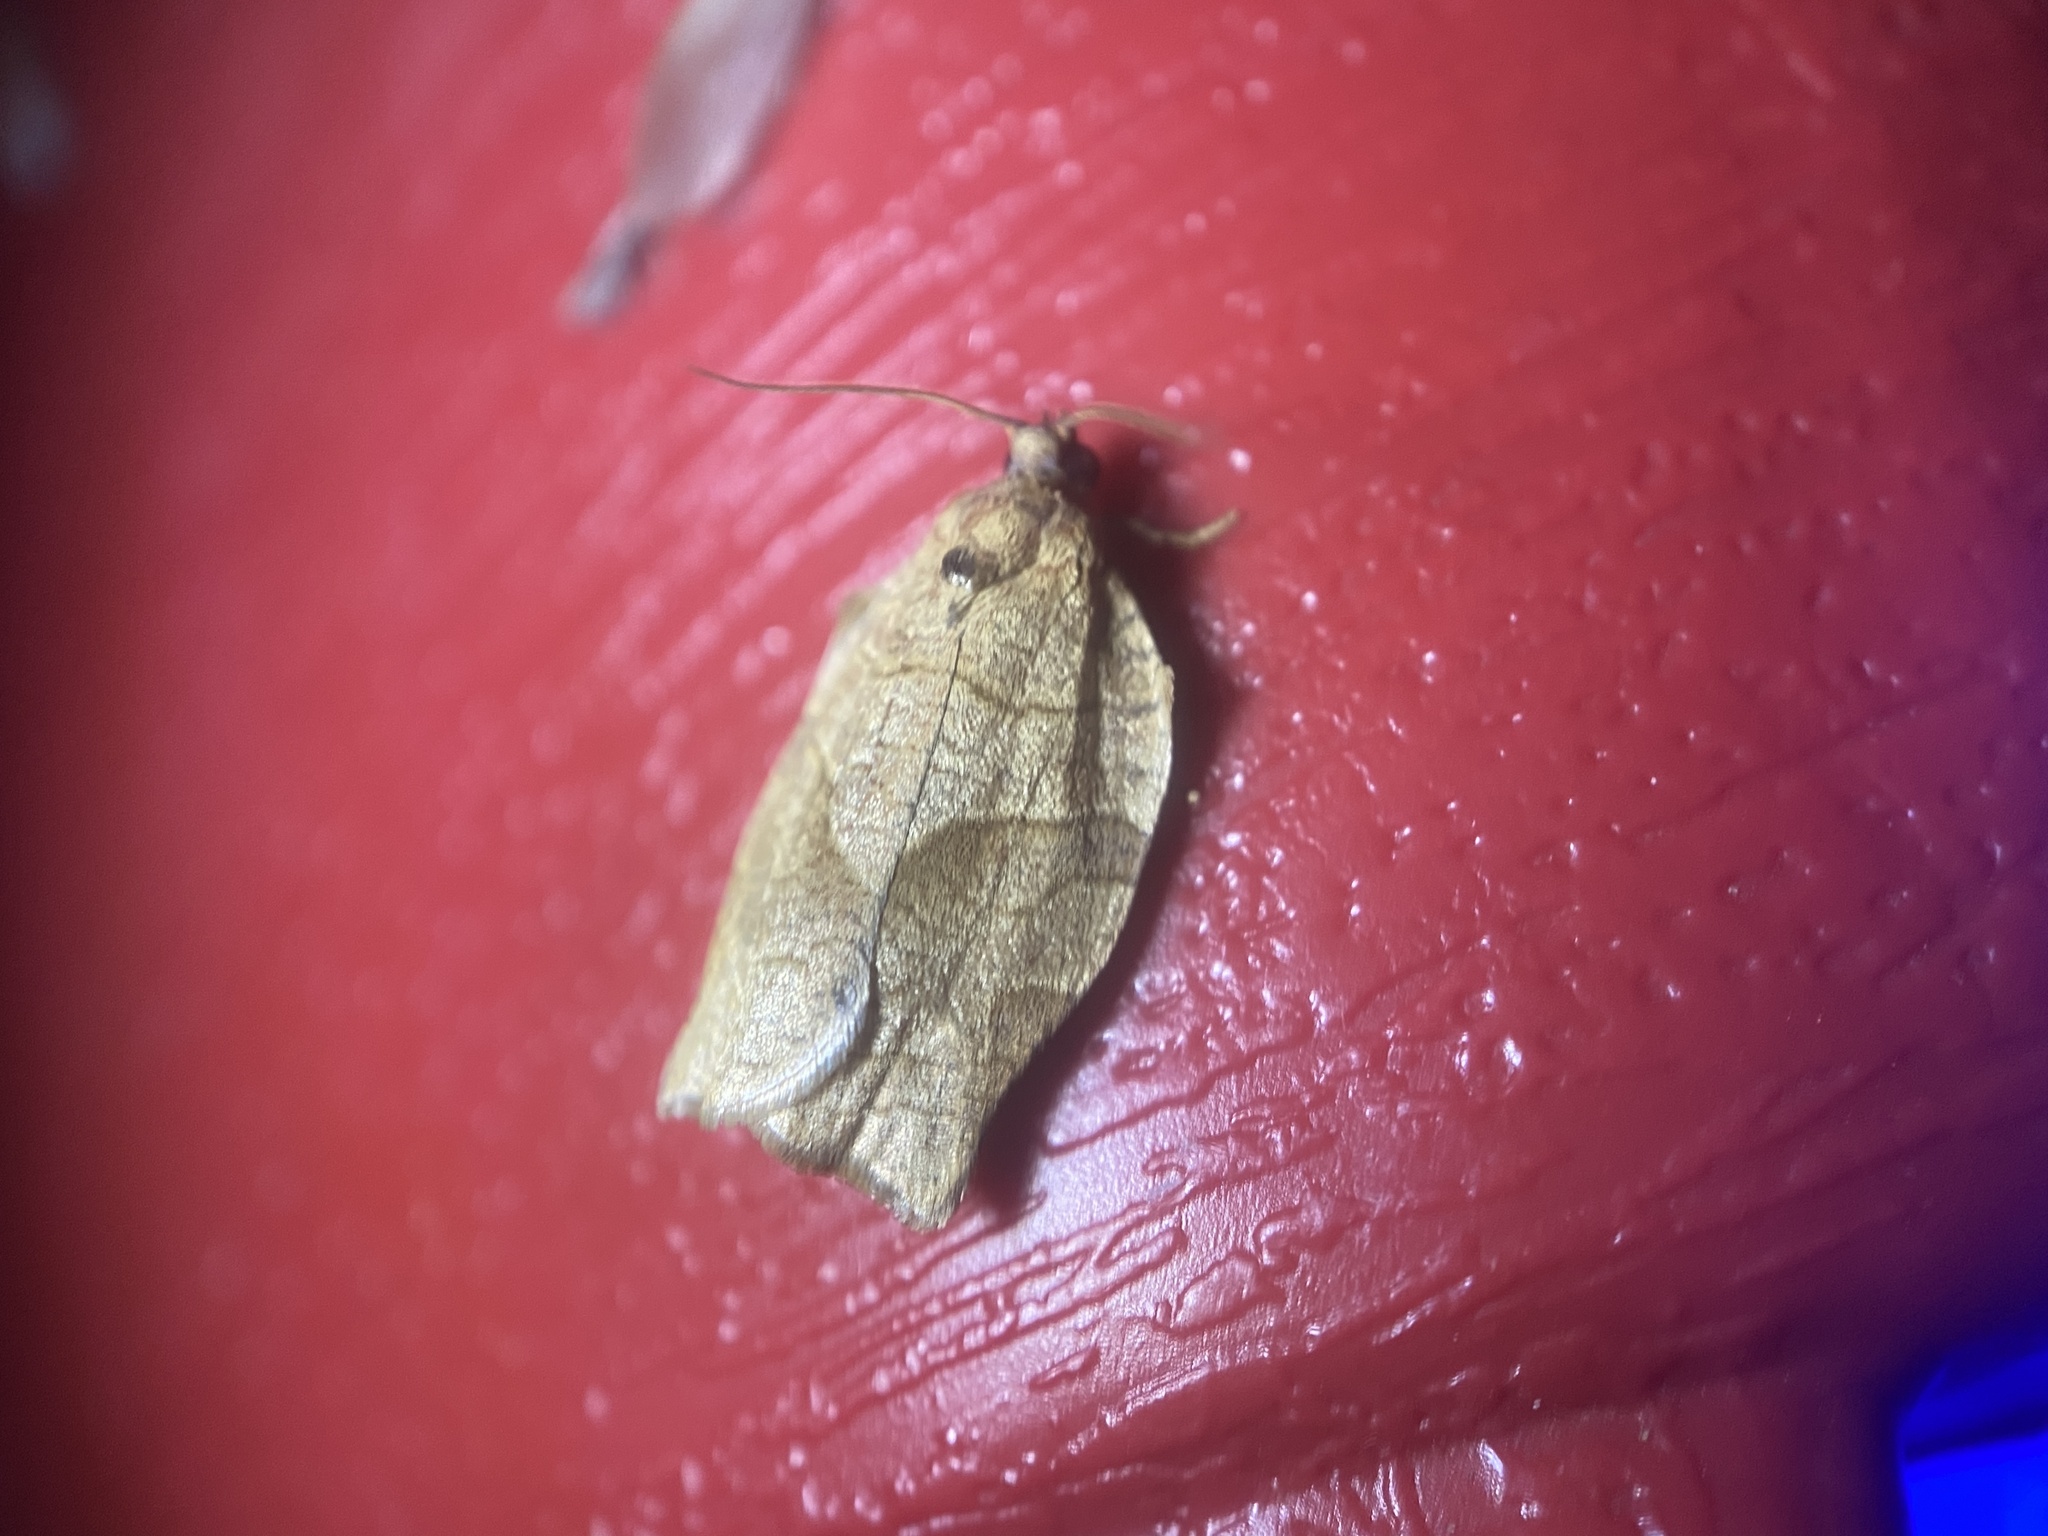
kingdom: Animalia
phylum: Arthropoda
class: Insecta
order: Lepidoptera
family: Tortricidae
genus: Choristoneura
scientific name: Choristoneura rosaceana
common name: Oblique-banded leafroller moth
